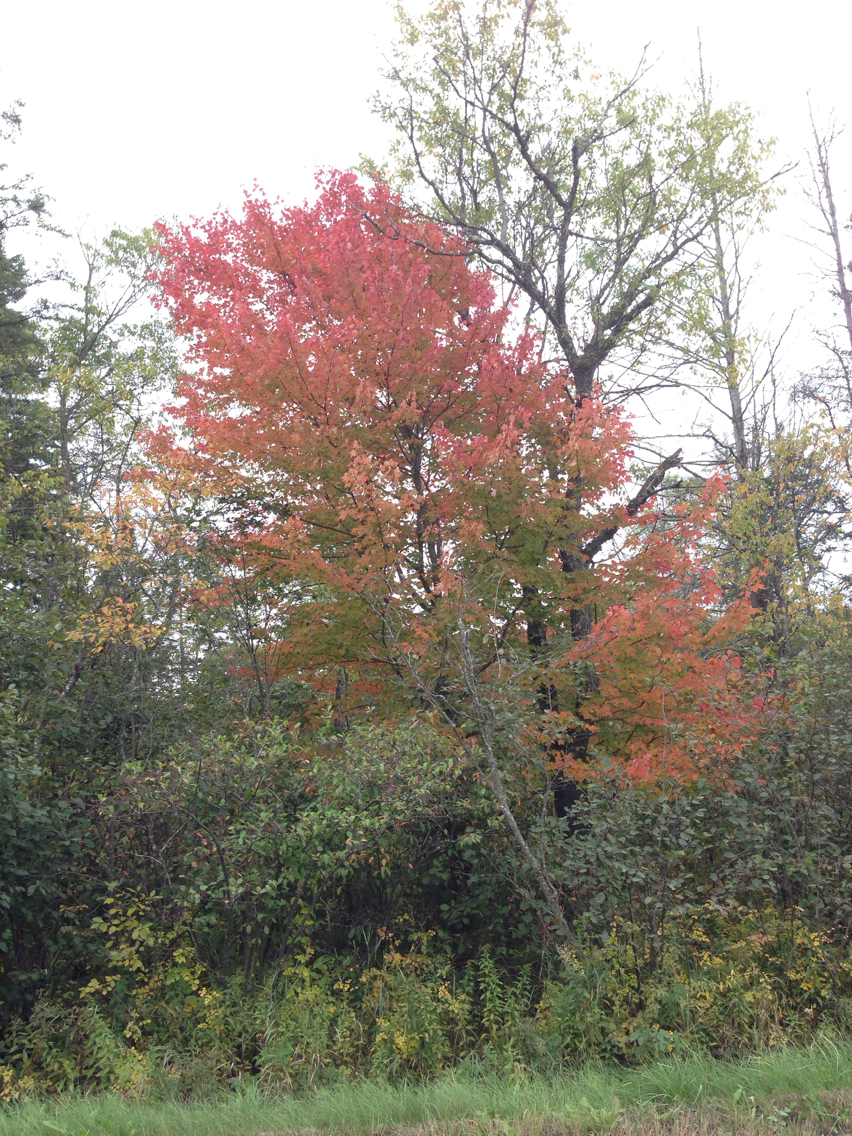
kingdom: Plantae
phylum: Tracheophyta
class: Magnoliopsida
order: Sapindales
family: Sapindaceae
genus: Acer
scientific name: Acer rubrum
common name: Red maple
